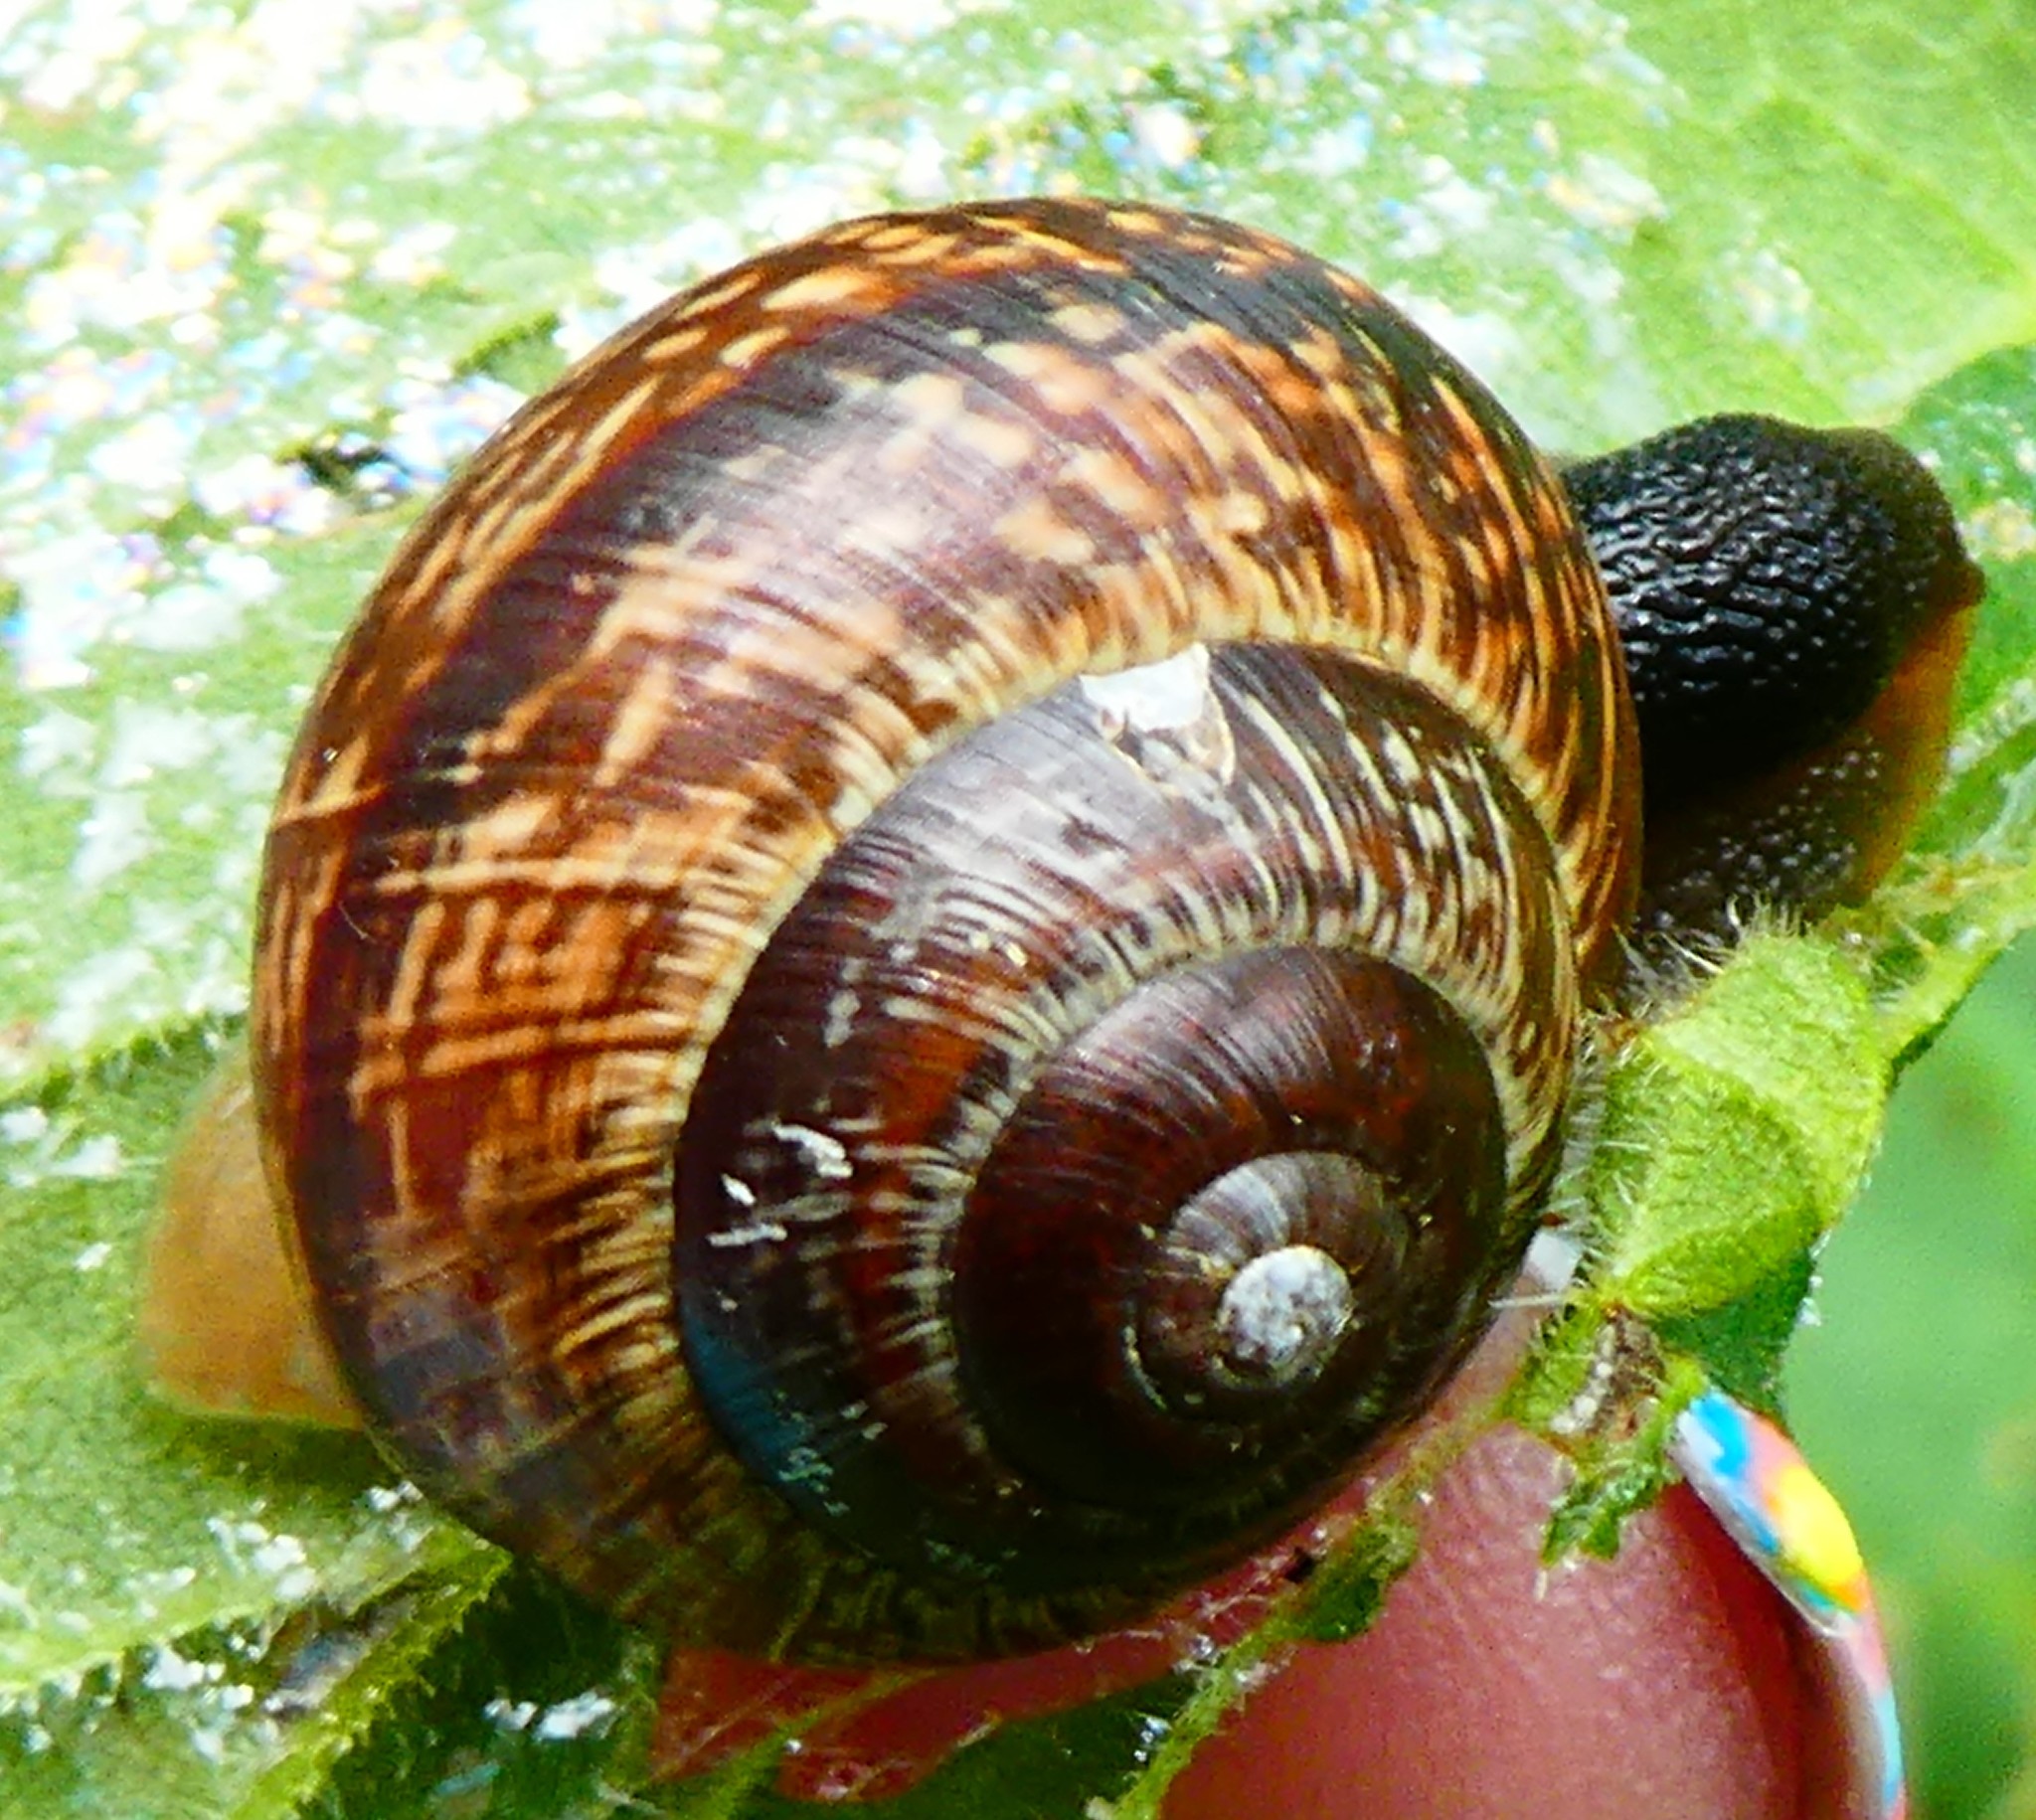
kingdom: Animalia
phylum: Mollusca
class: Gastropoda
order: Stylommatophora
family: Helicidae
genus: Arianta
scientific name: Arianta arbustorum
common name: Copse snail
